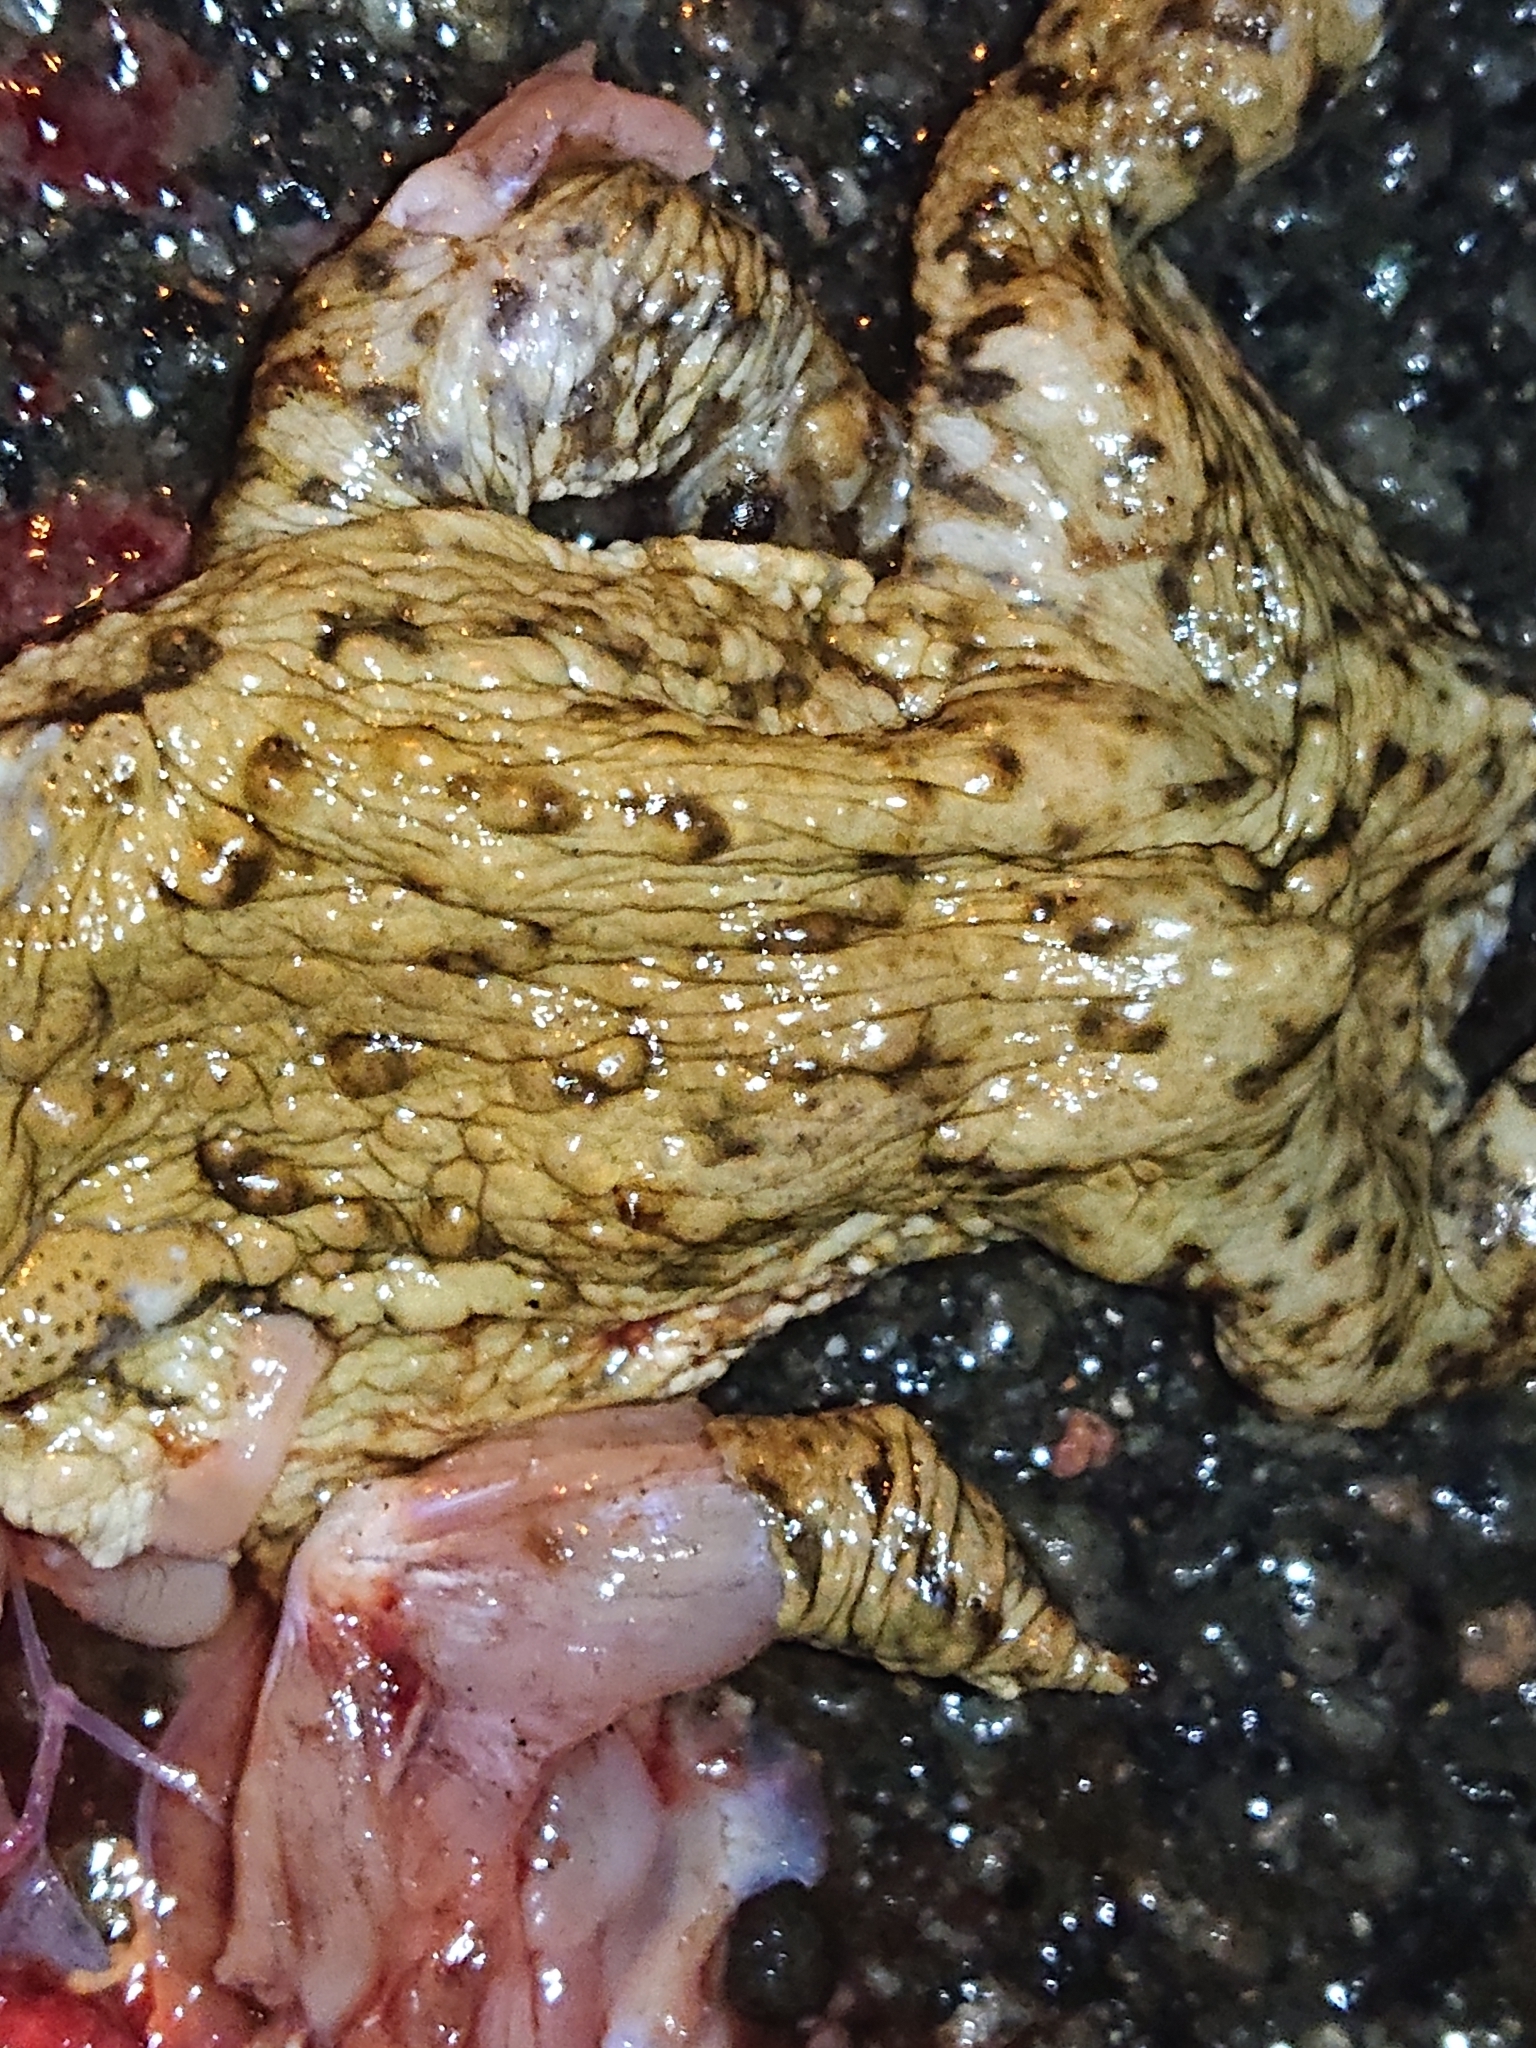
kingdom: Animalia
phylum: Chordata
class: Amphibia
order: Anura
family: Bufonidae
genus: Bufo
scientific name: Bufo bufo
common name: Common toad
